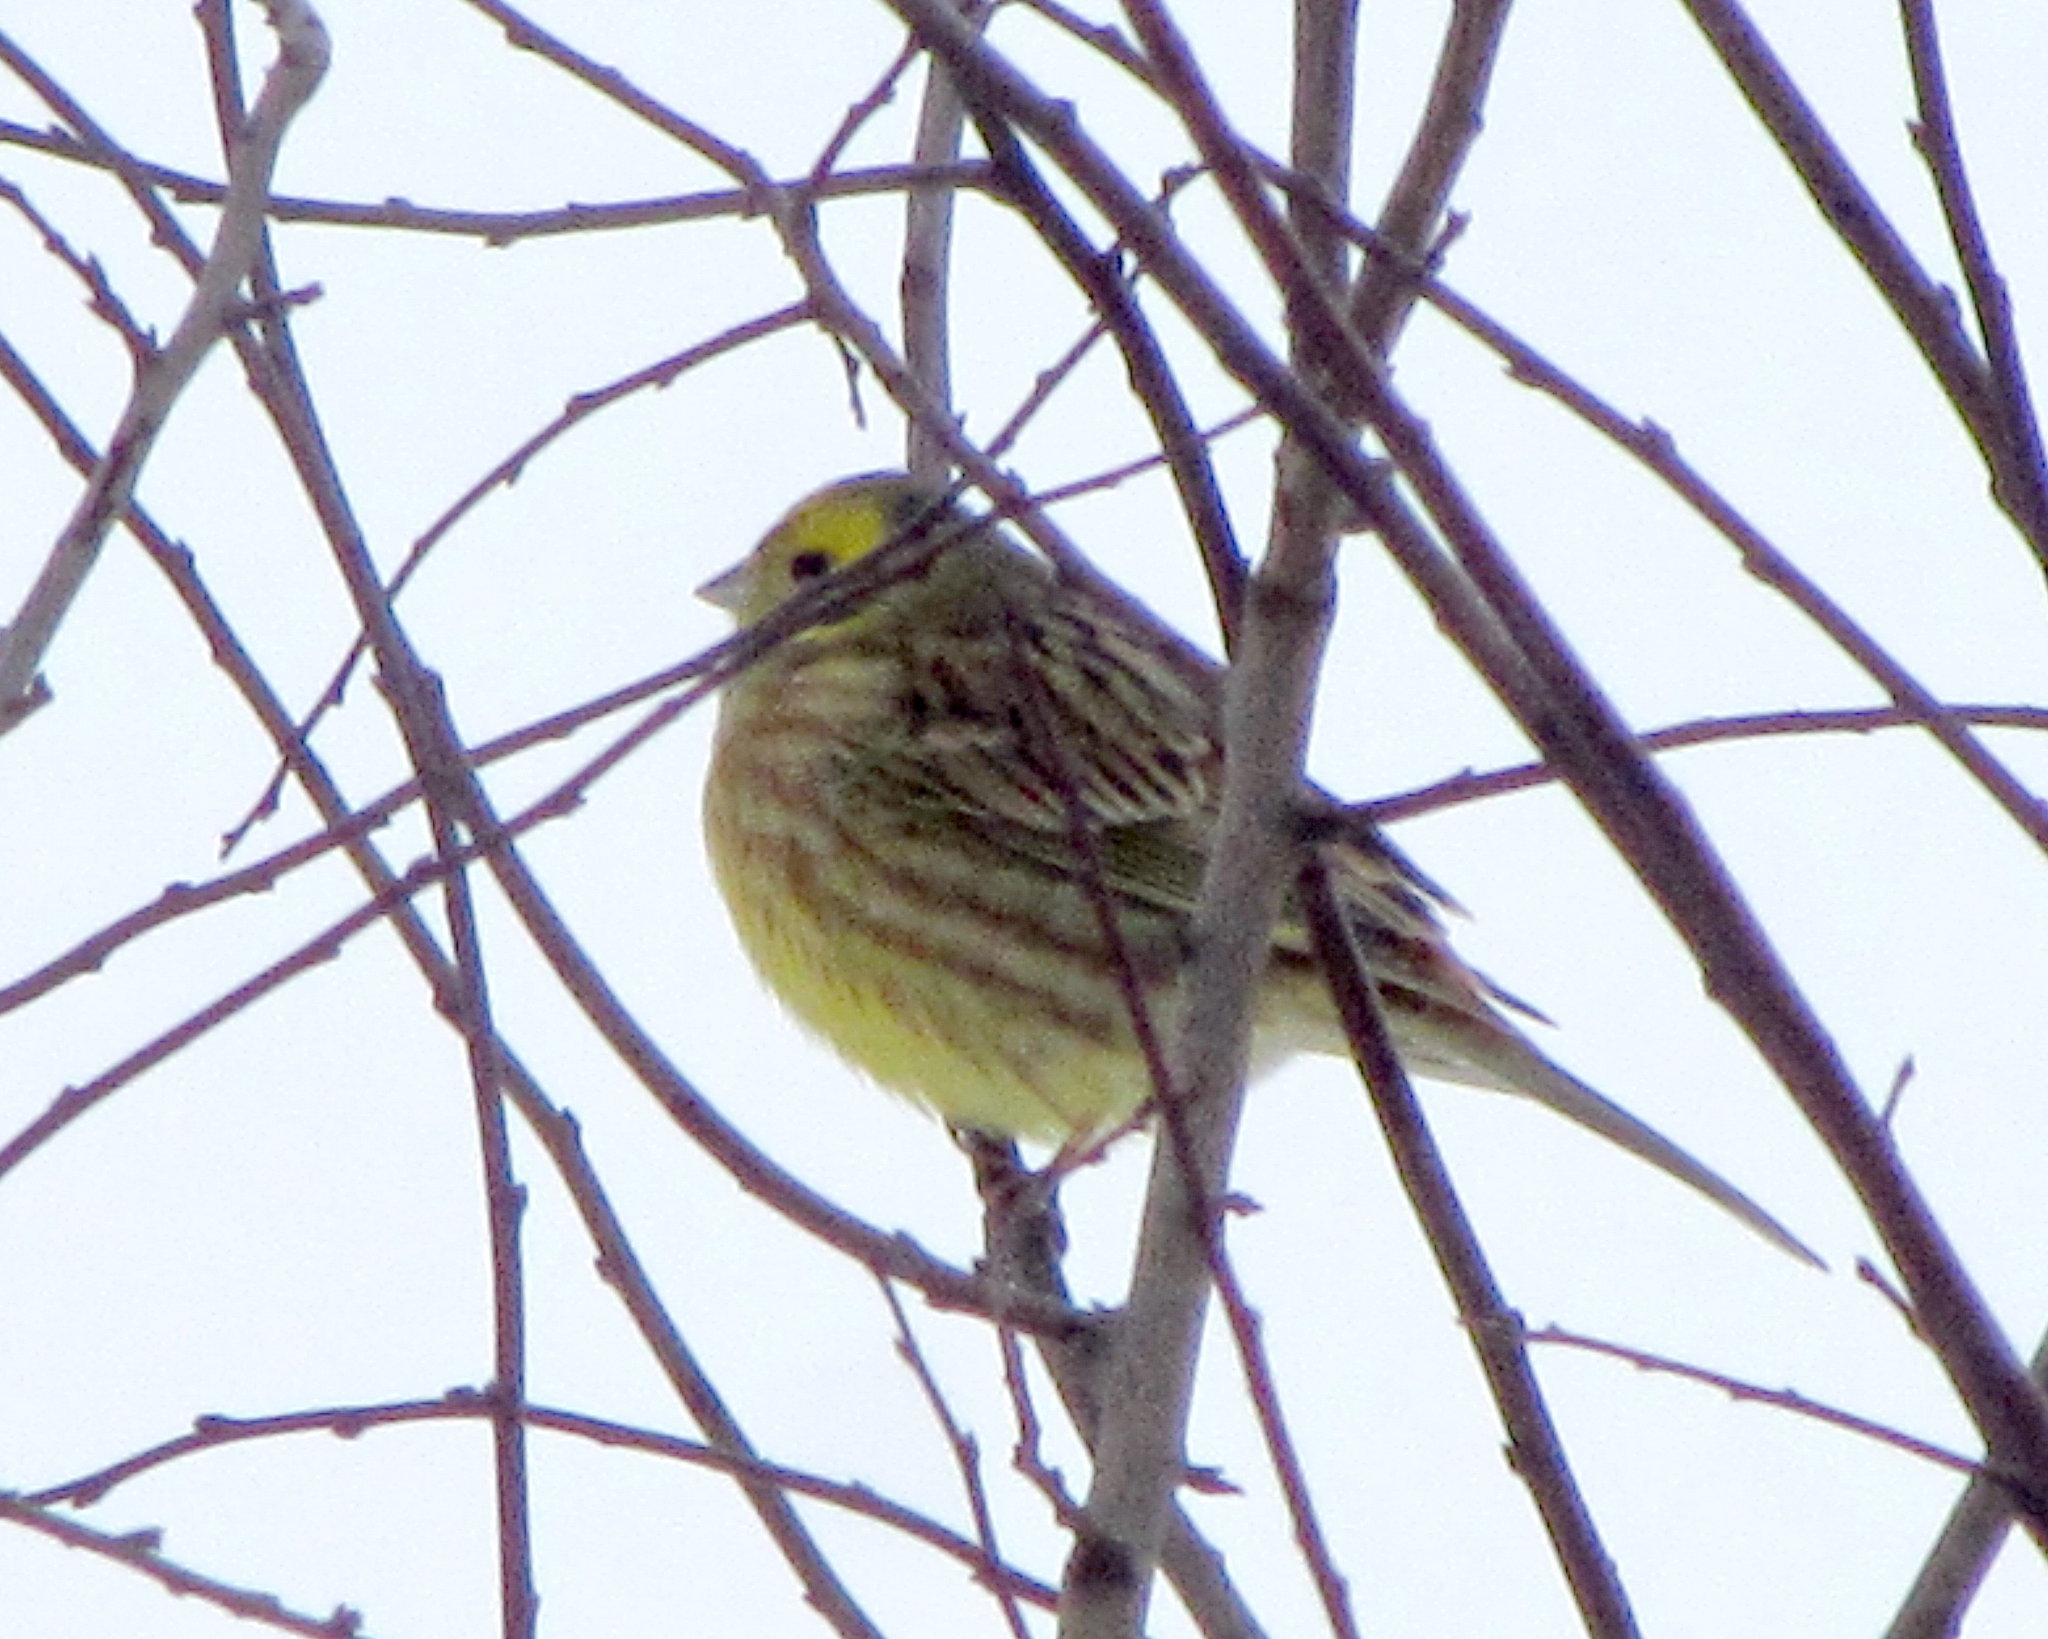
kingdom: Animalia
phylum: Chordata
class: Aves
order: Passeriformes
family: Emberizidae
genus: Emberiza
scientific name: Emberiza citrinella
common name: Yellowhammer
